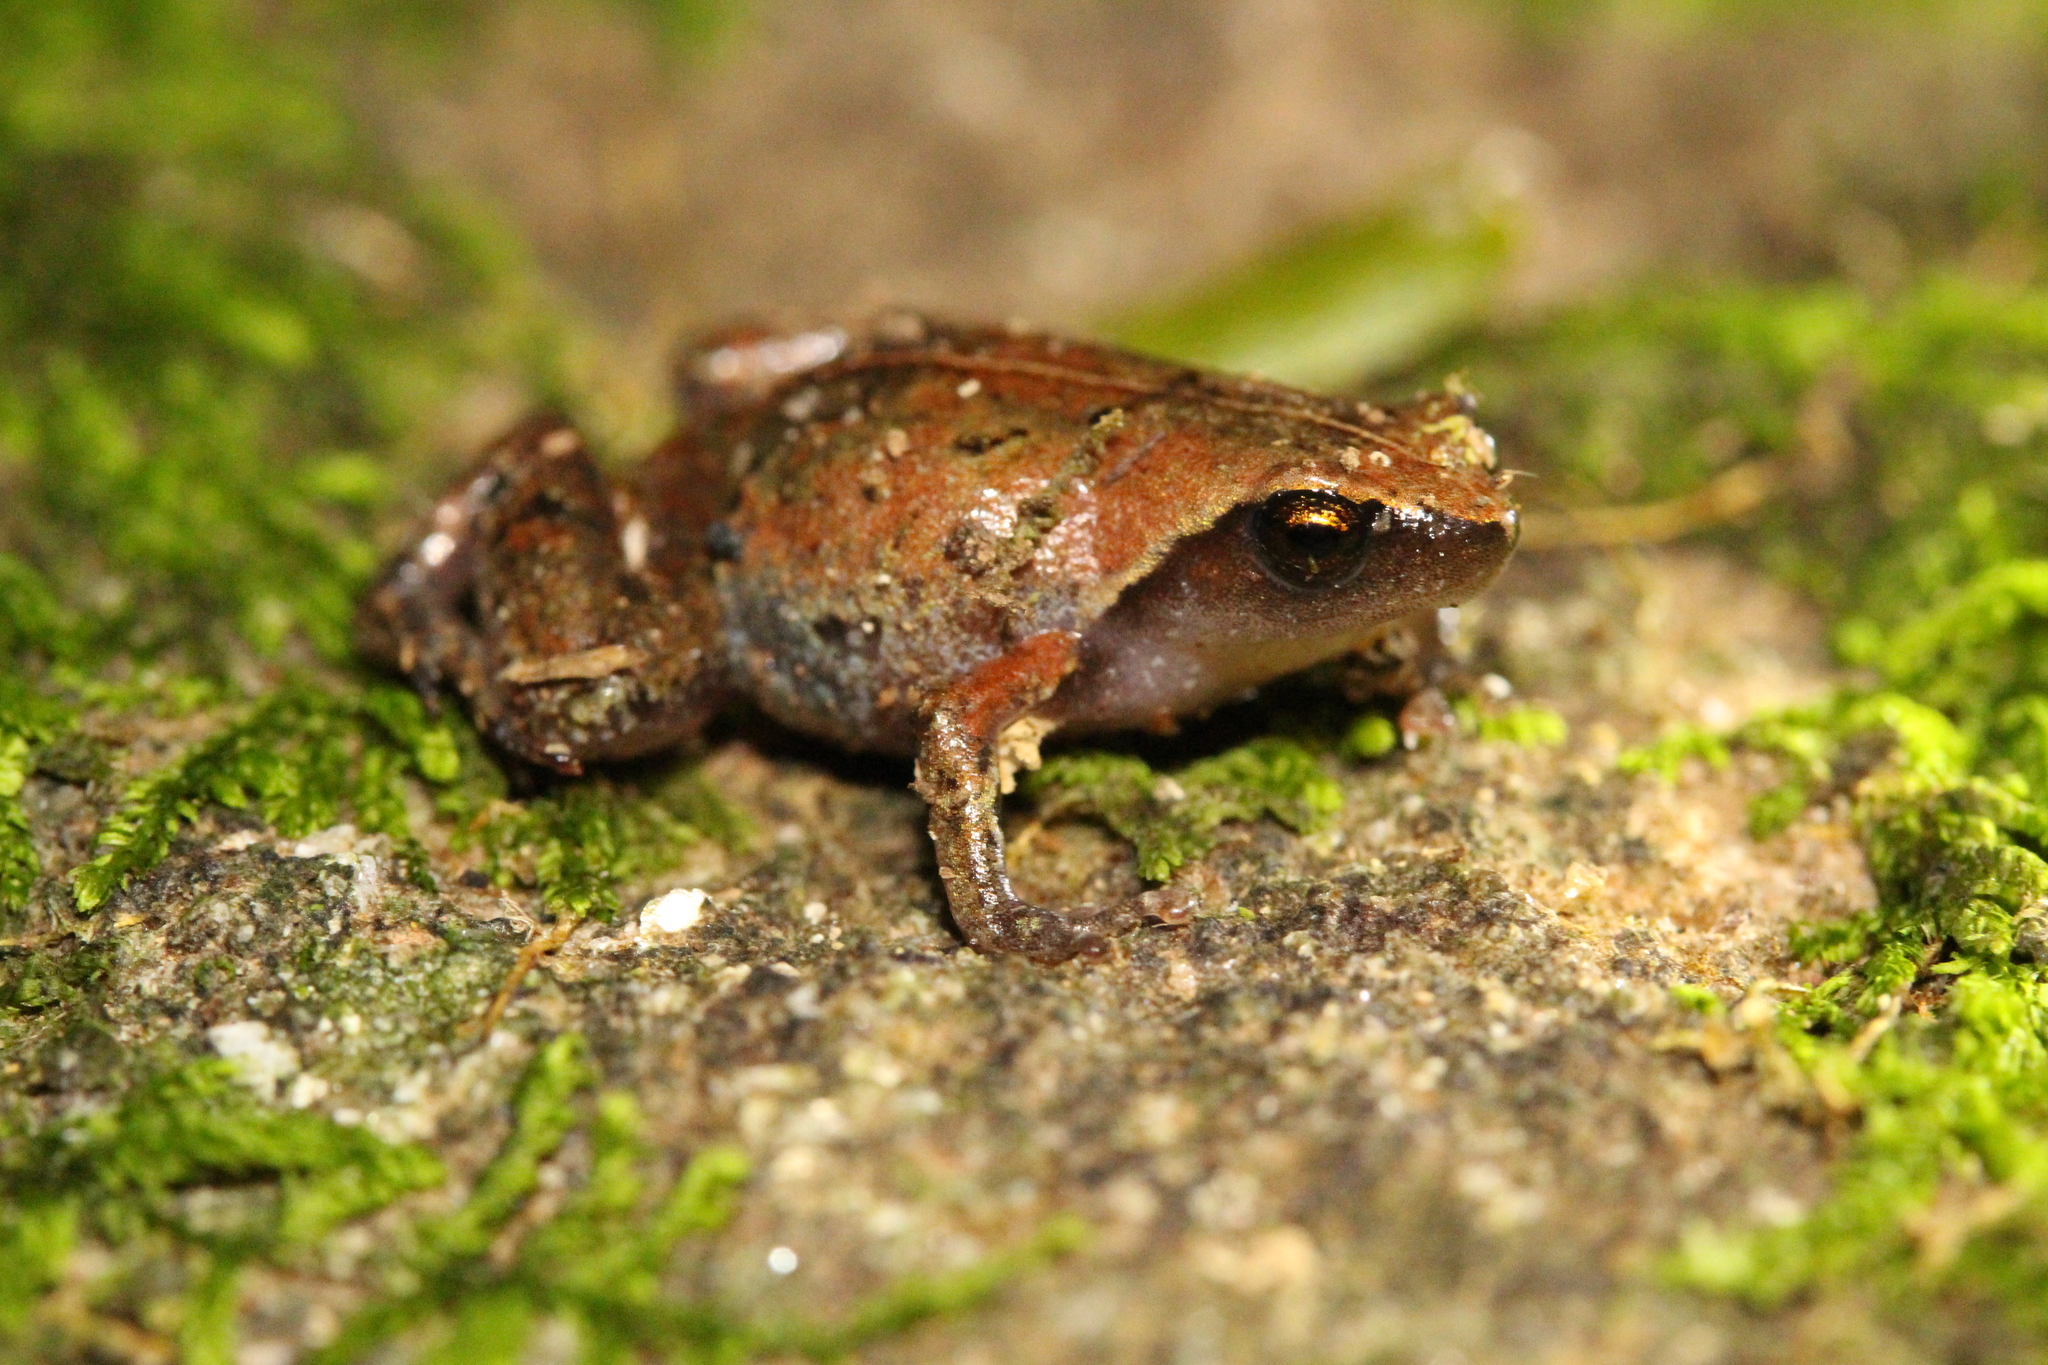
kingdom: Animalia
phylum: Chordata
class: Amphibia
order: Anura
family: Microhylidae
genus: Anilany
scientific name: Anilany helenae
